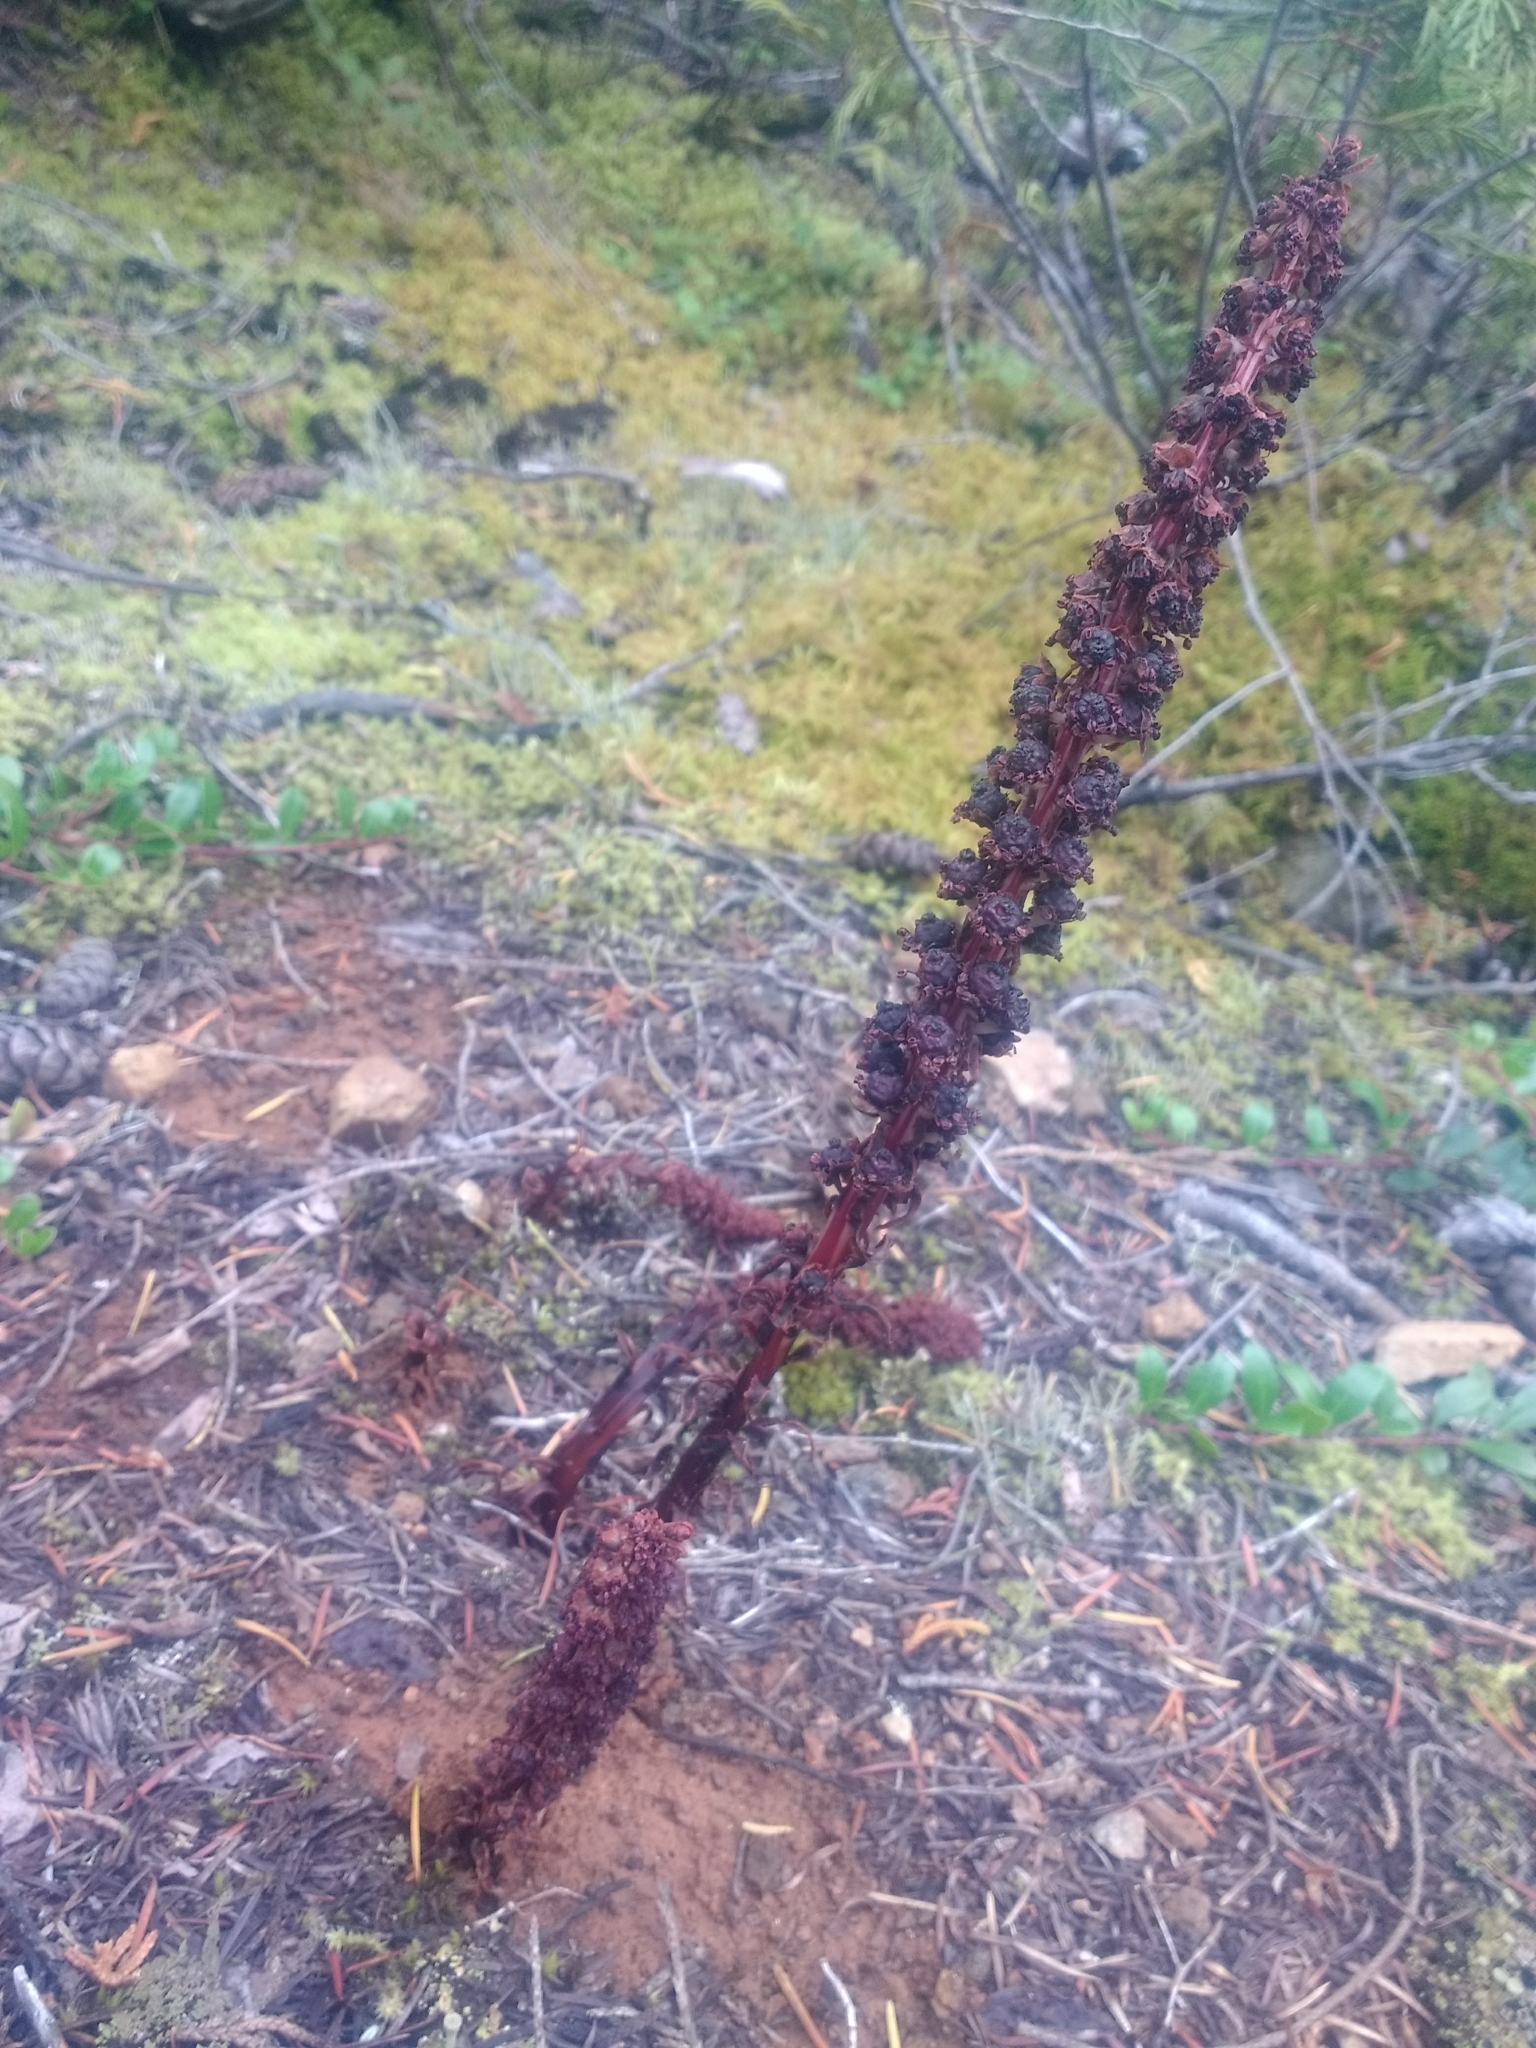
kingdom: Plantae
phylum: Tracheophyta
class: Magnoliopsida
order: Ericales
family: Ericaceae
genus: Allotropa
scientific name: Allotropa virgata
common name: Candy-striped allotropa
